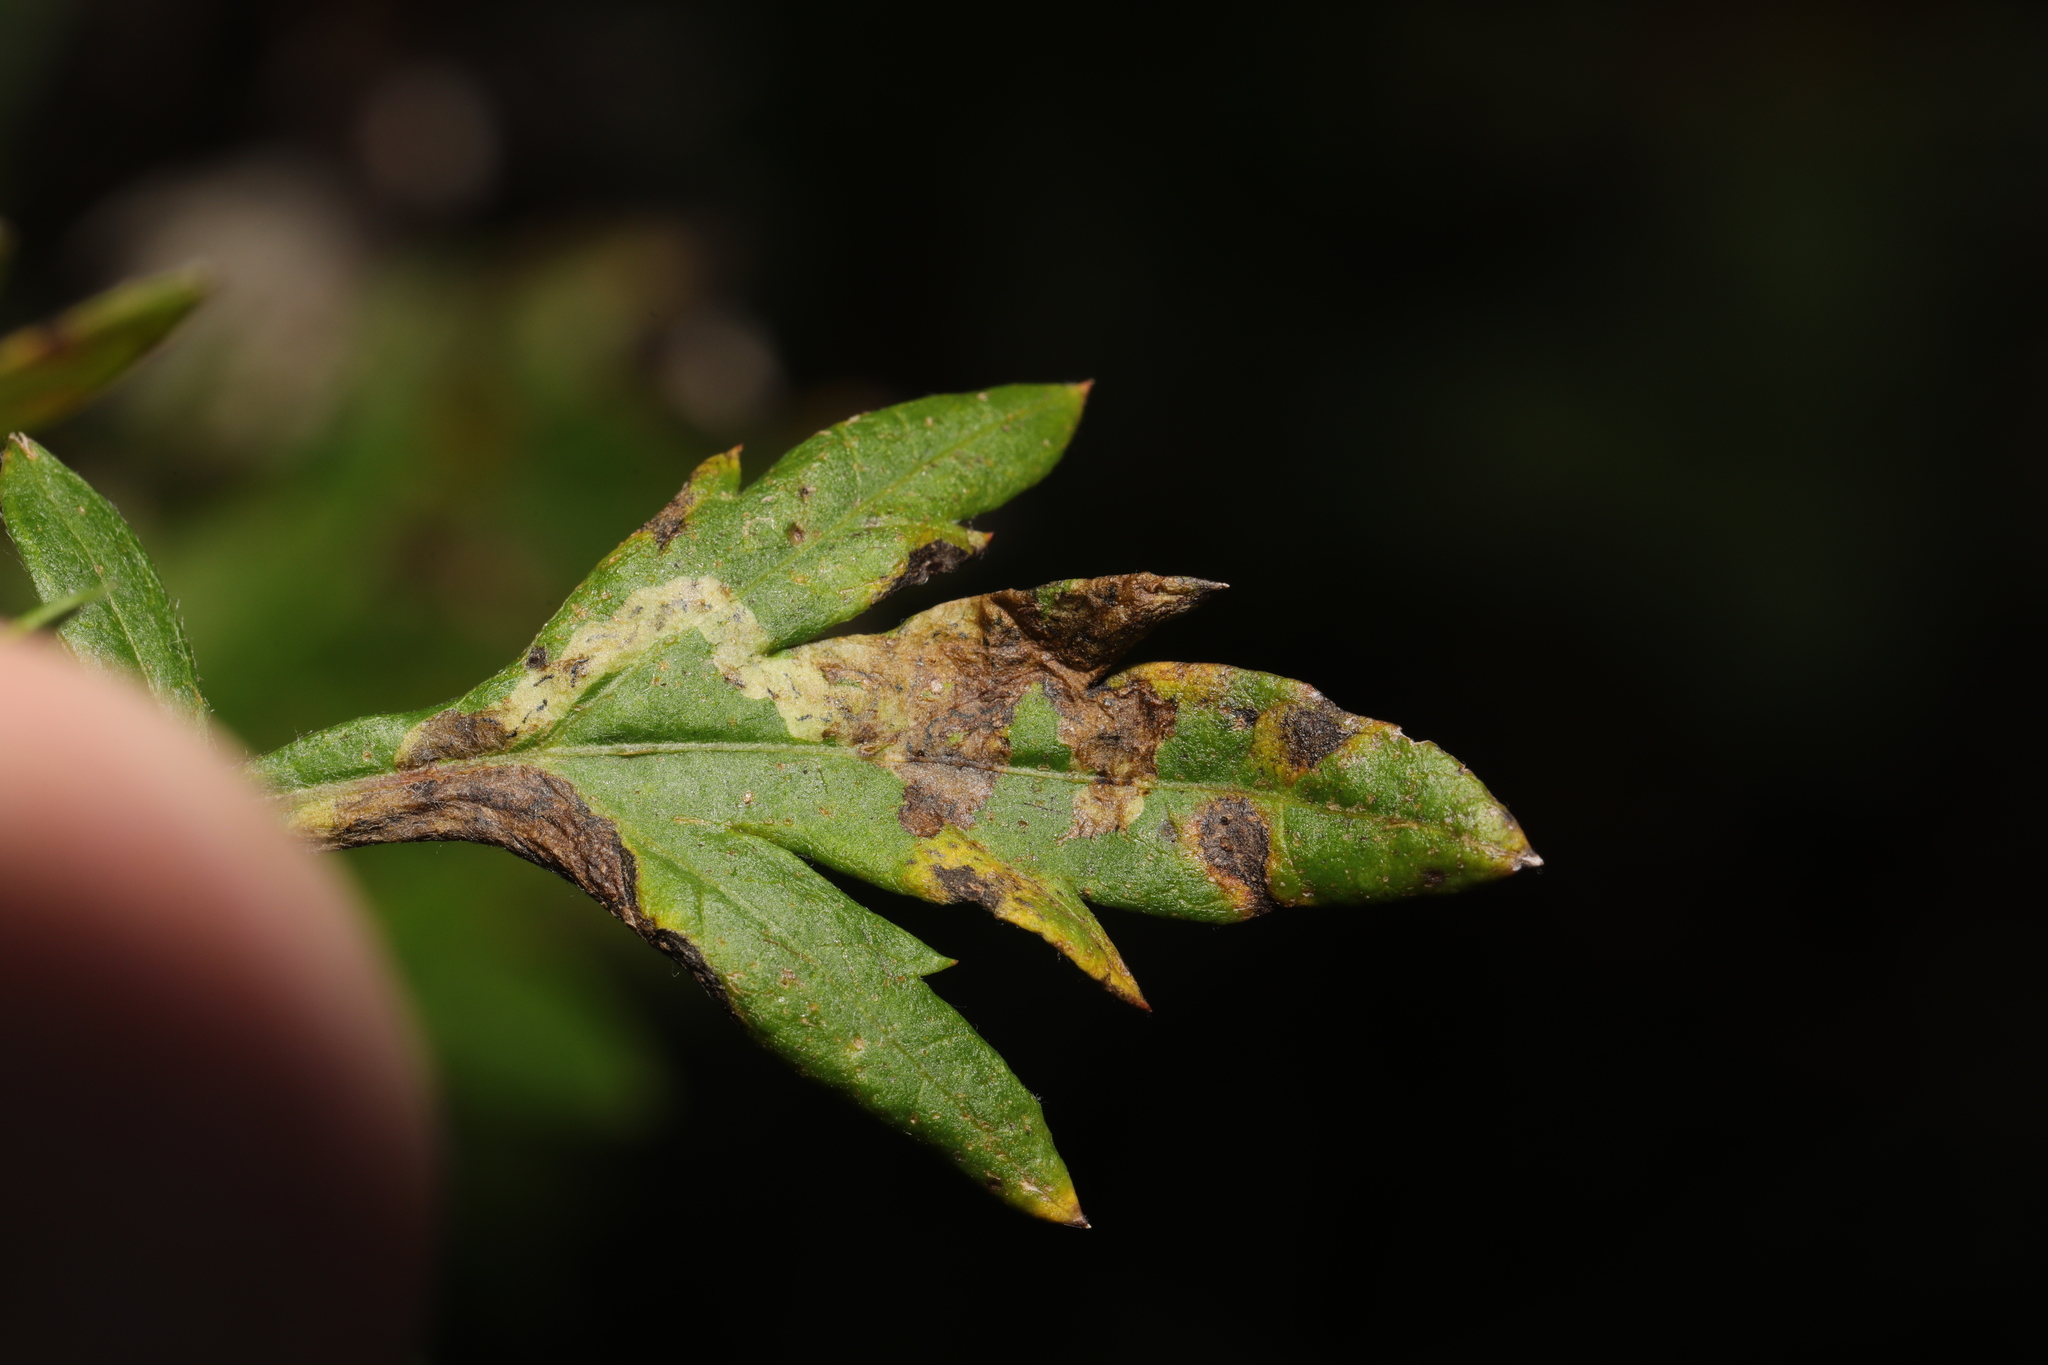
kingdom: Animalia
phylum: Arthropoda
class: Insecta
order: Diptera
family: Tephritidae
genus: Trypeta
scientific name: Trypeta zoe
